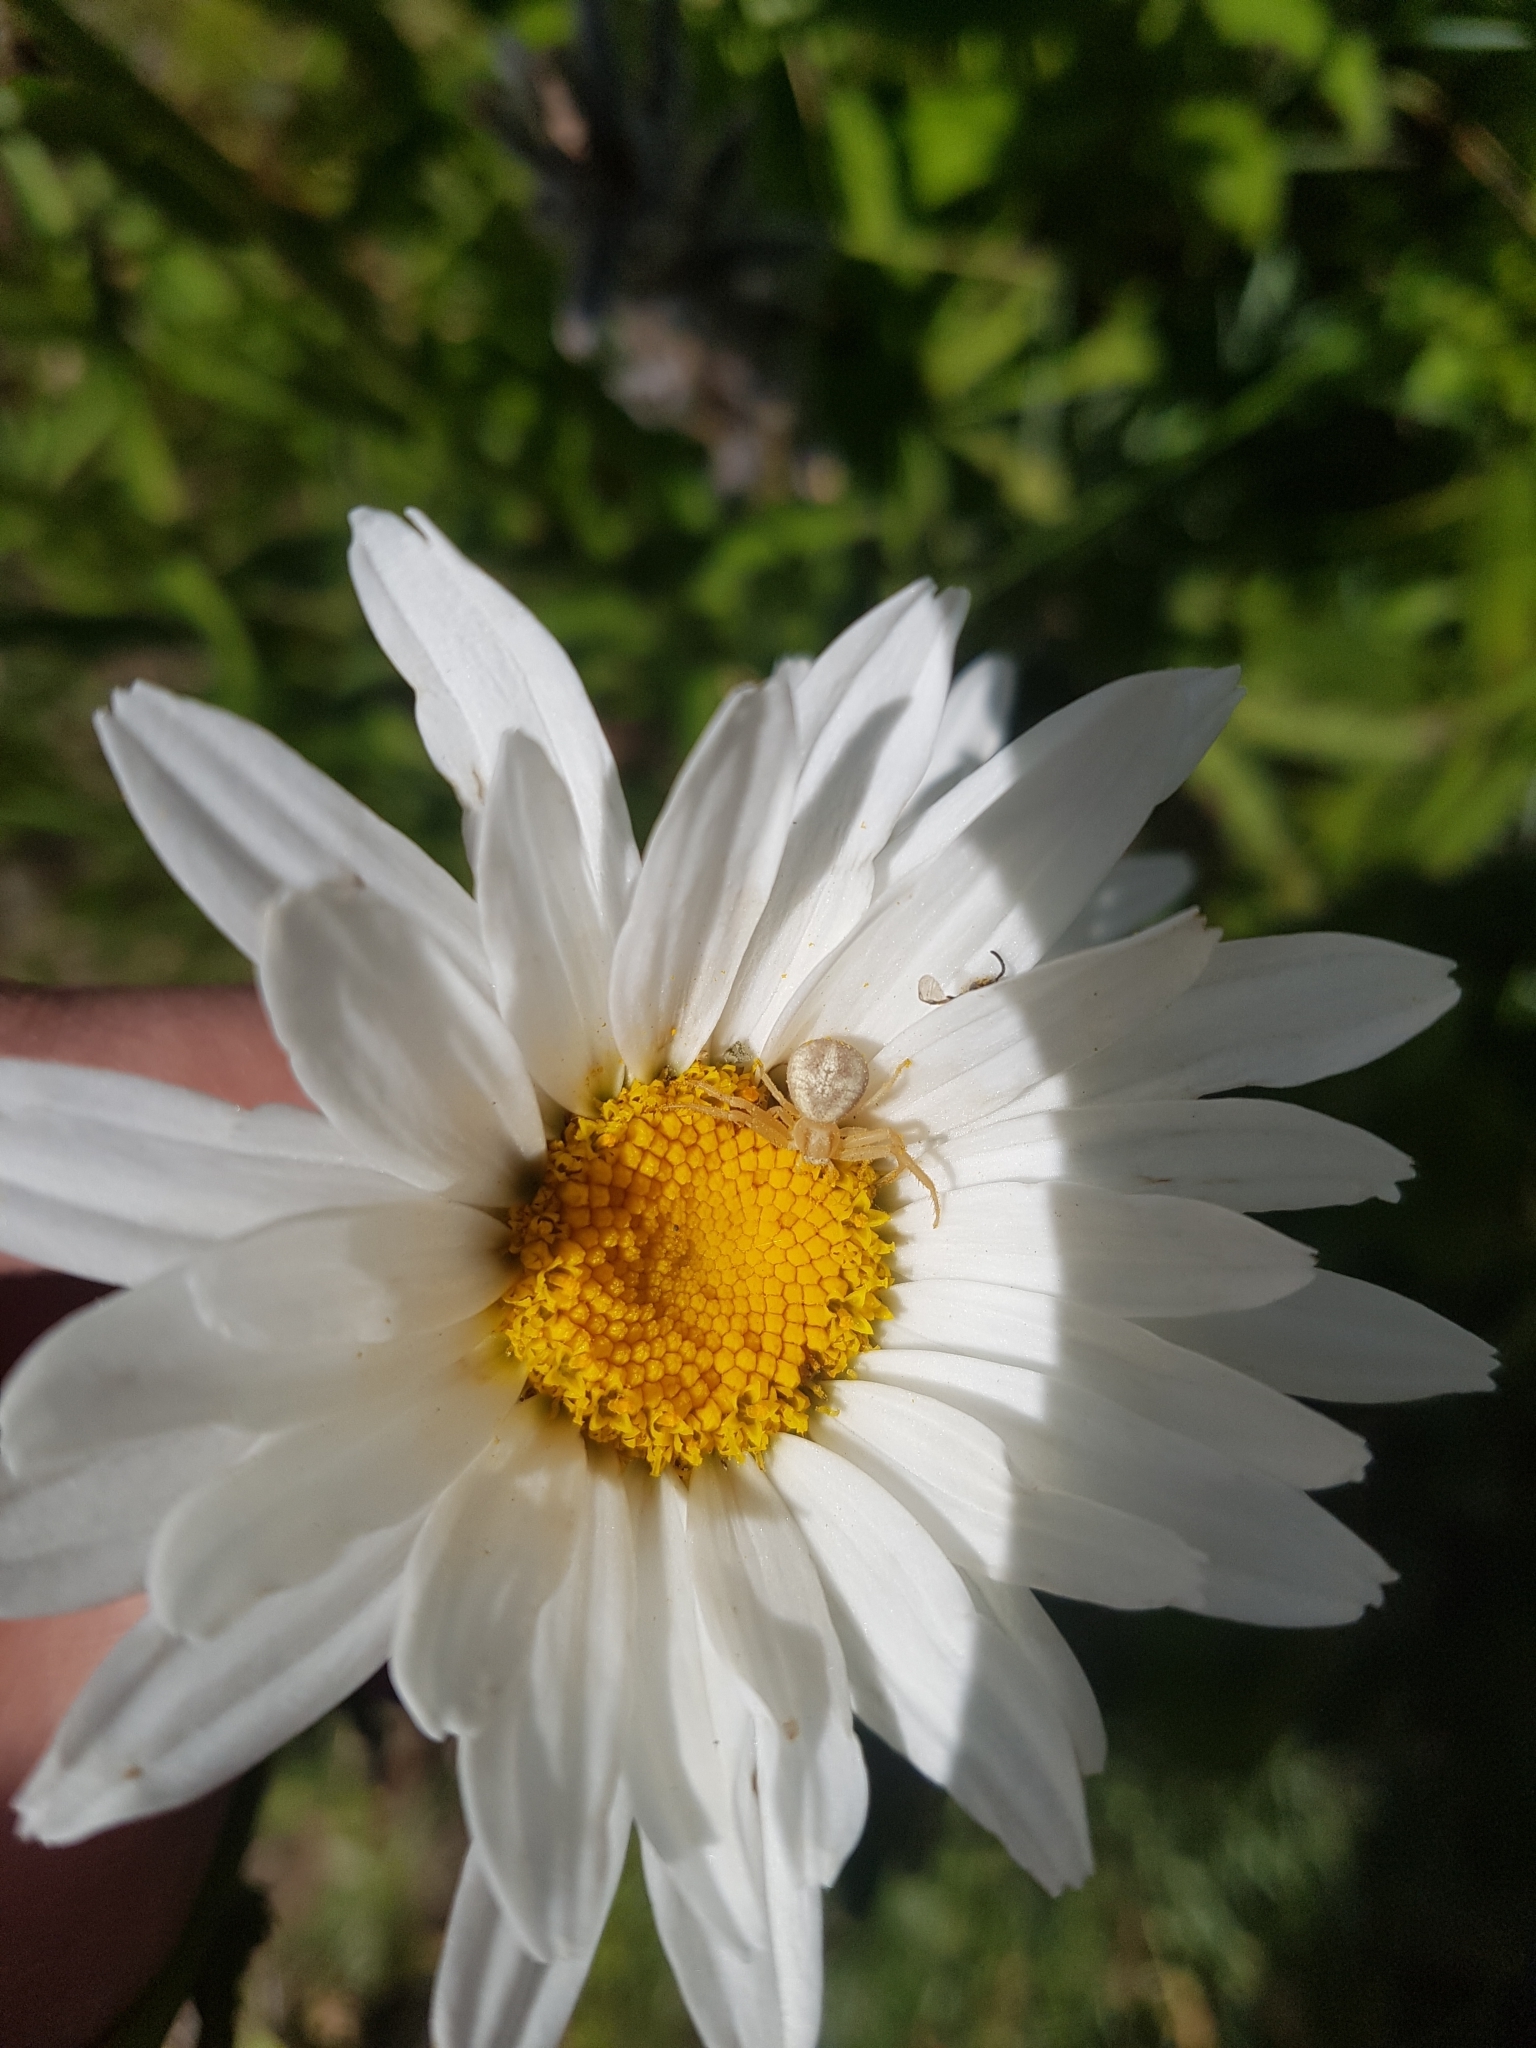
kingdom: Animalia
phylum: Arthropoda
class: Arachnida
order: Araneae
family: Thomisidae
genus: Misumenops
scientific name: Misumenops
